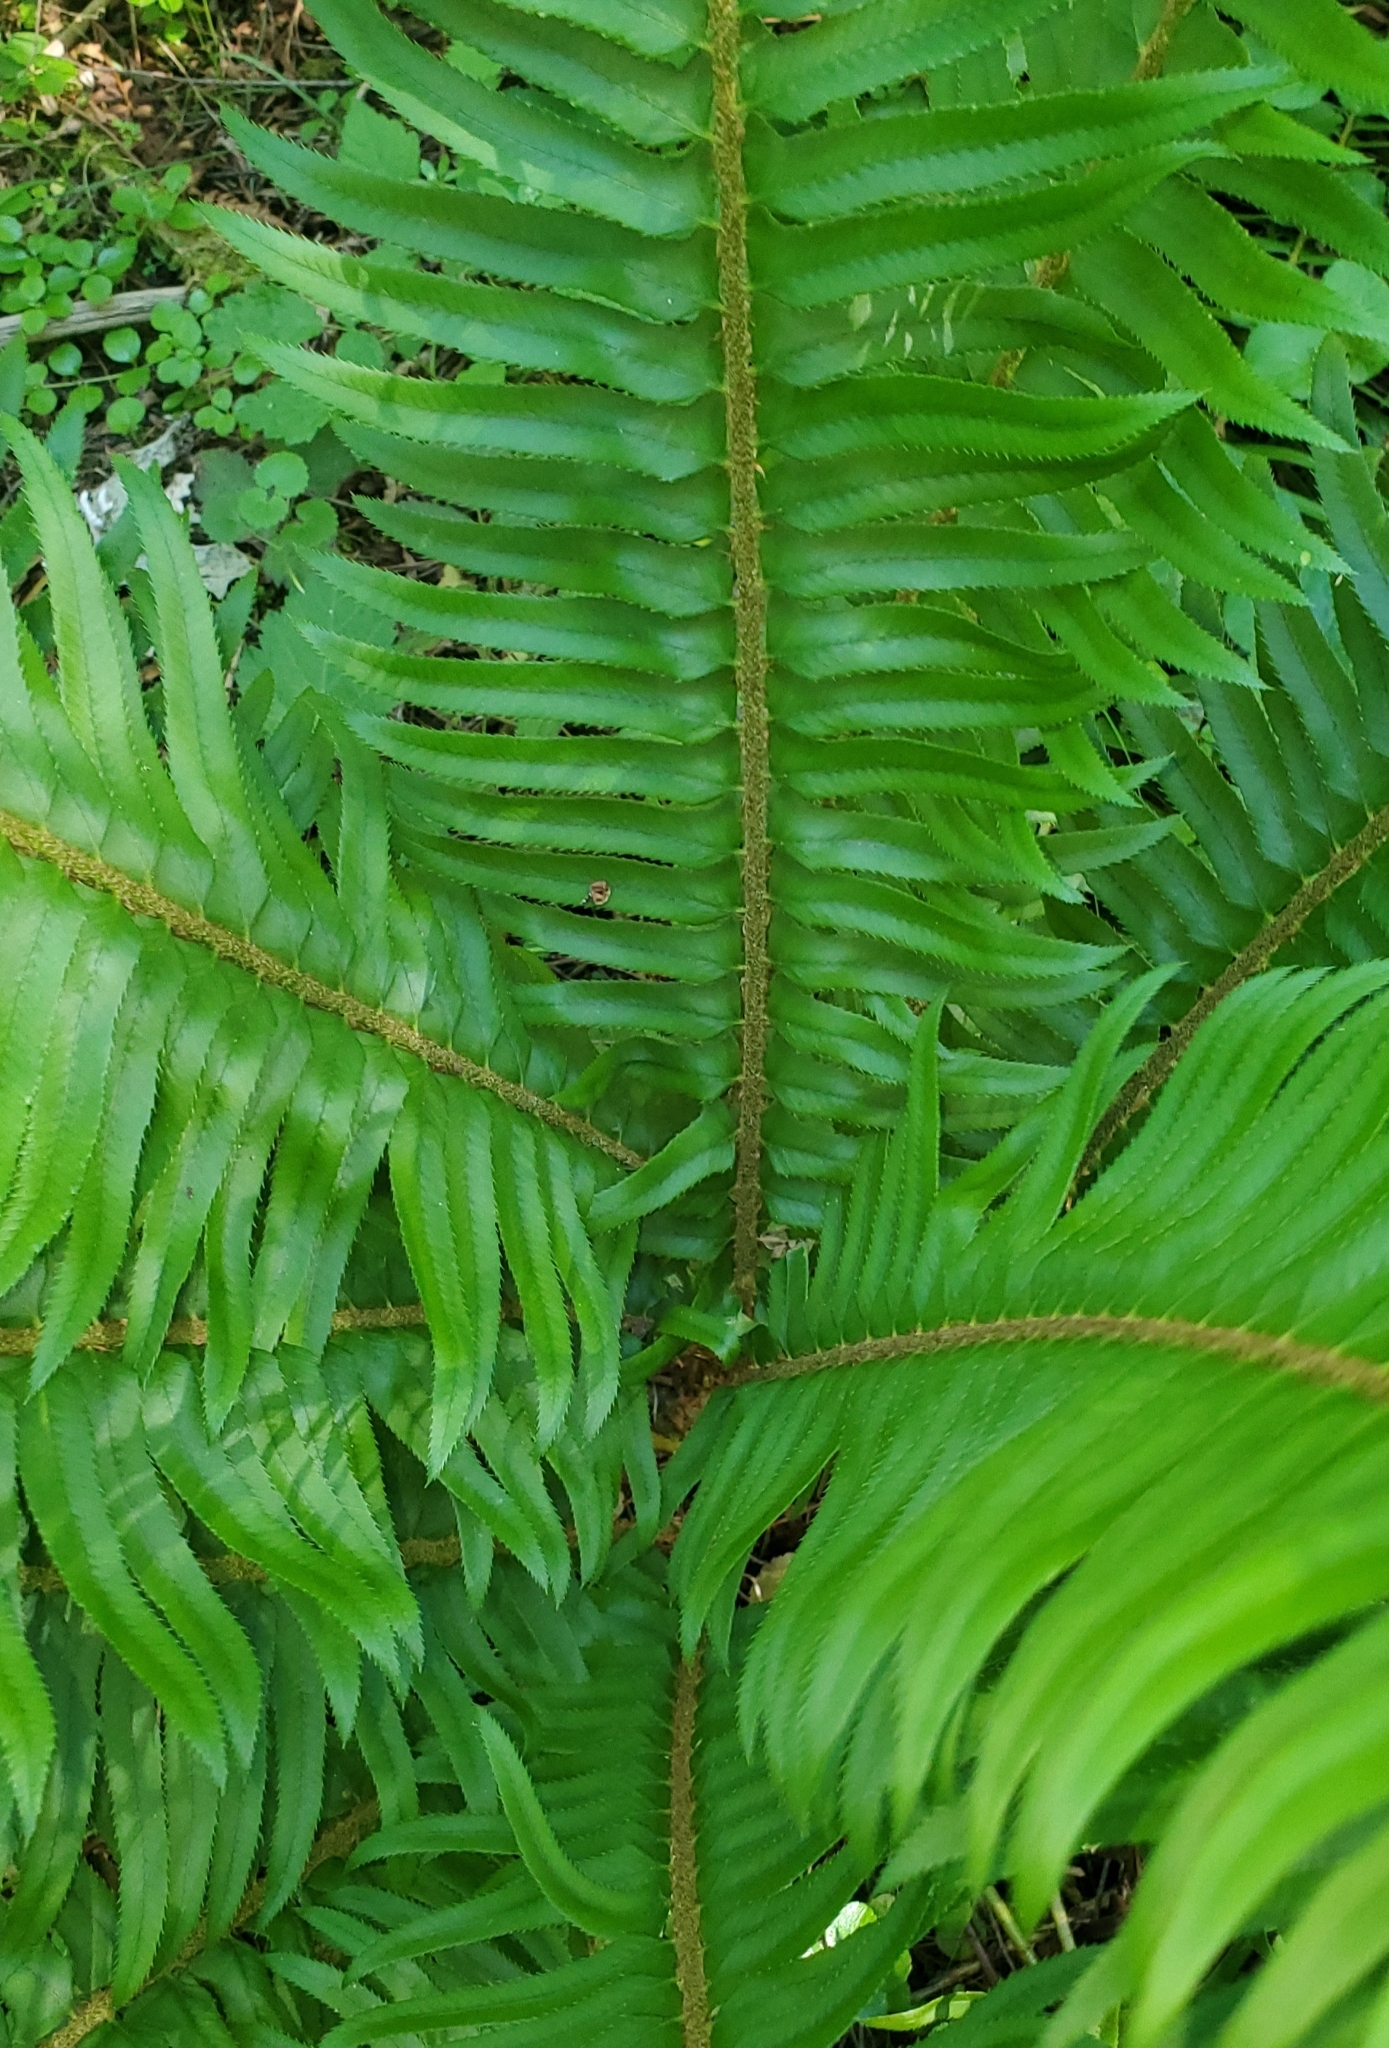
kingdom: Plantae
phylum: Tracheophyta
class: Polypodiopsida
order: Polypodiales
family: Dryopteridaceae
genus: Polystichum
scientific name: Polystichum munitum
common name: Western sword-fern
